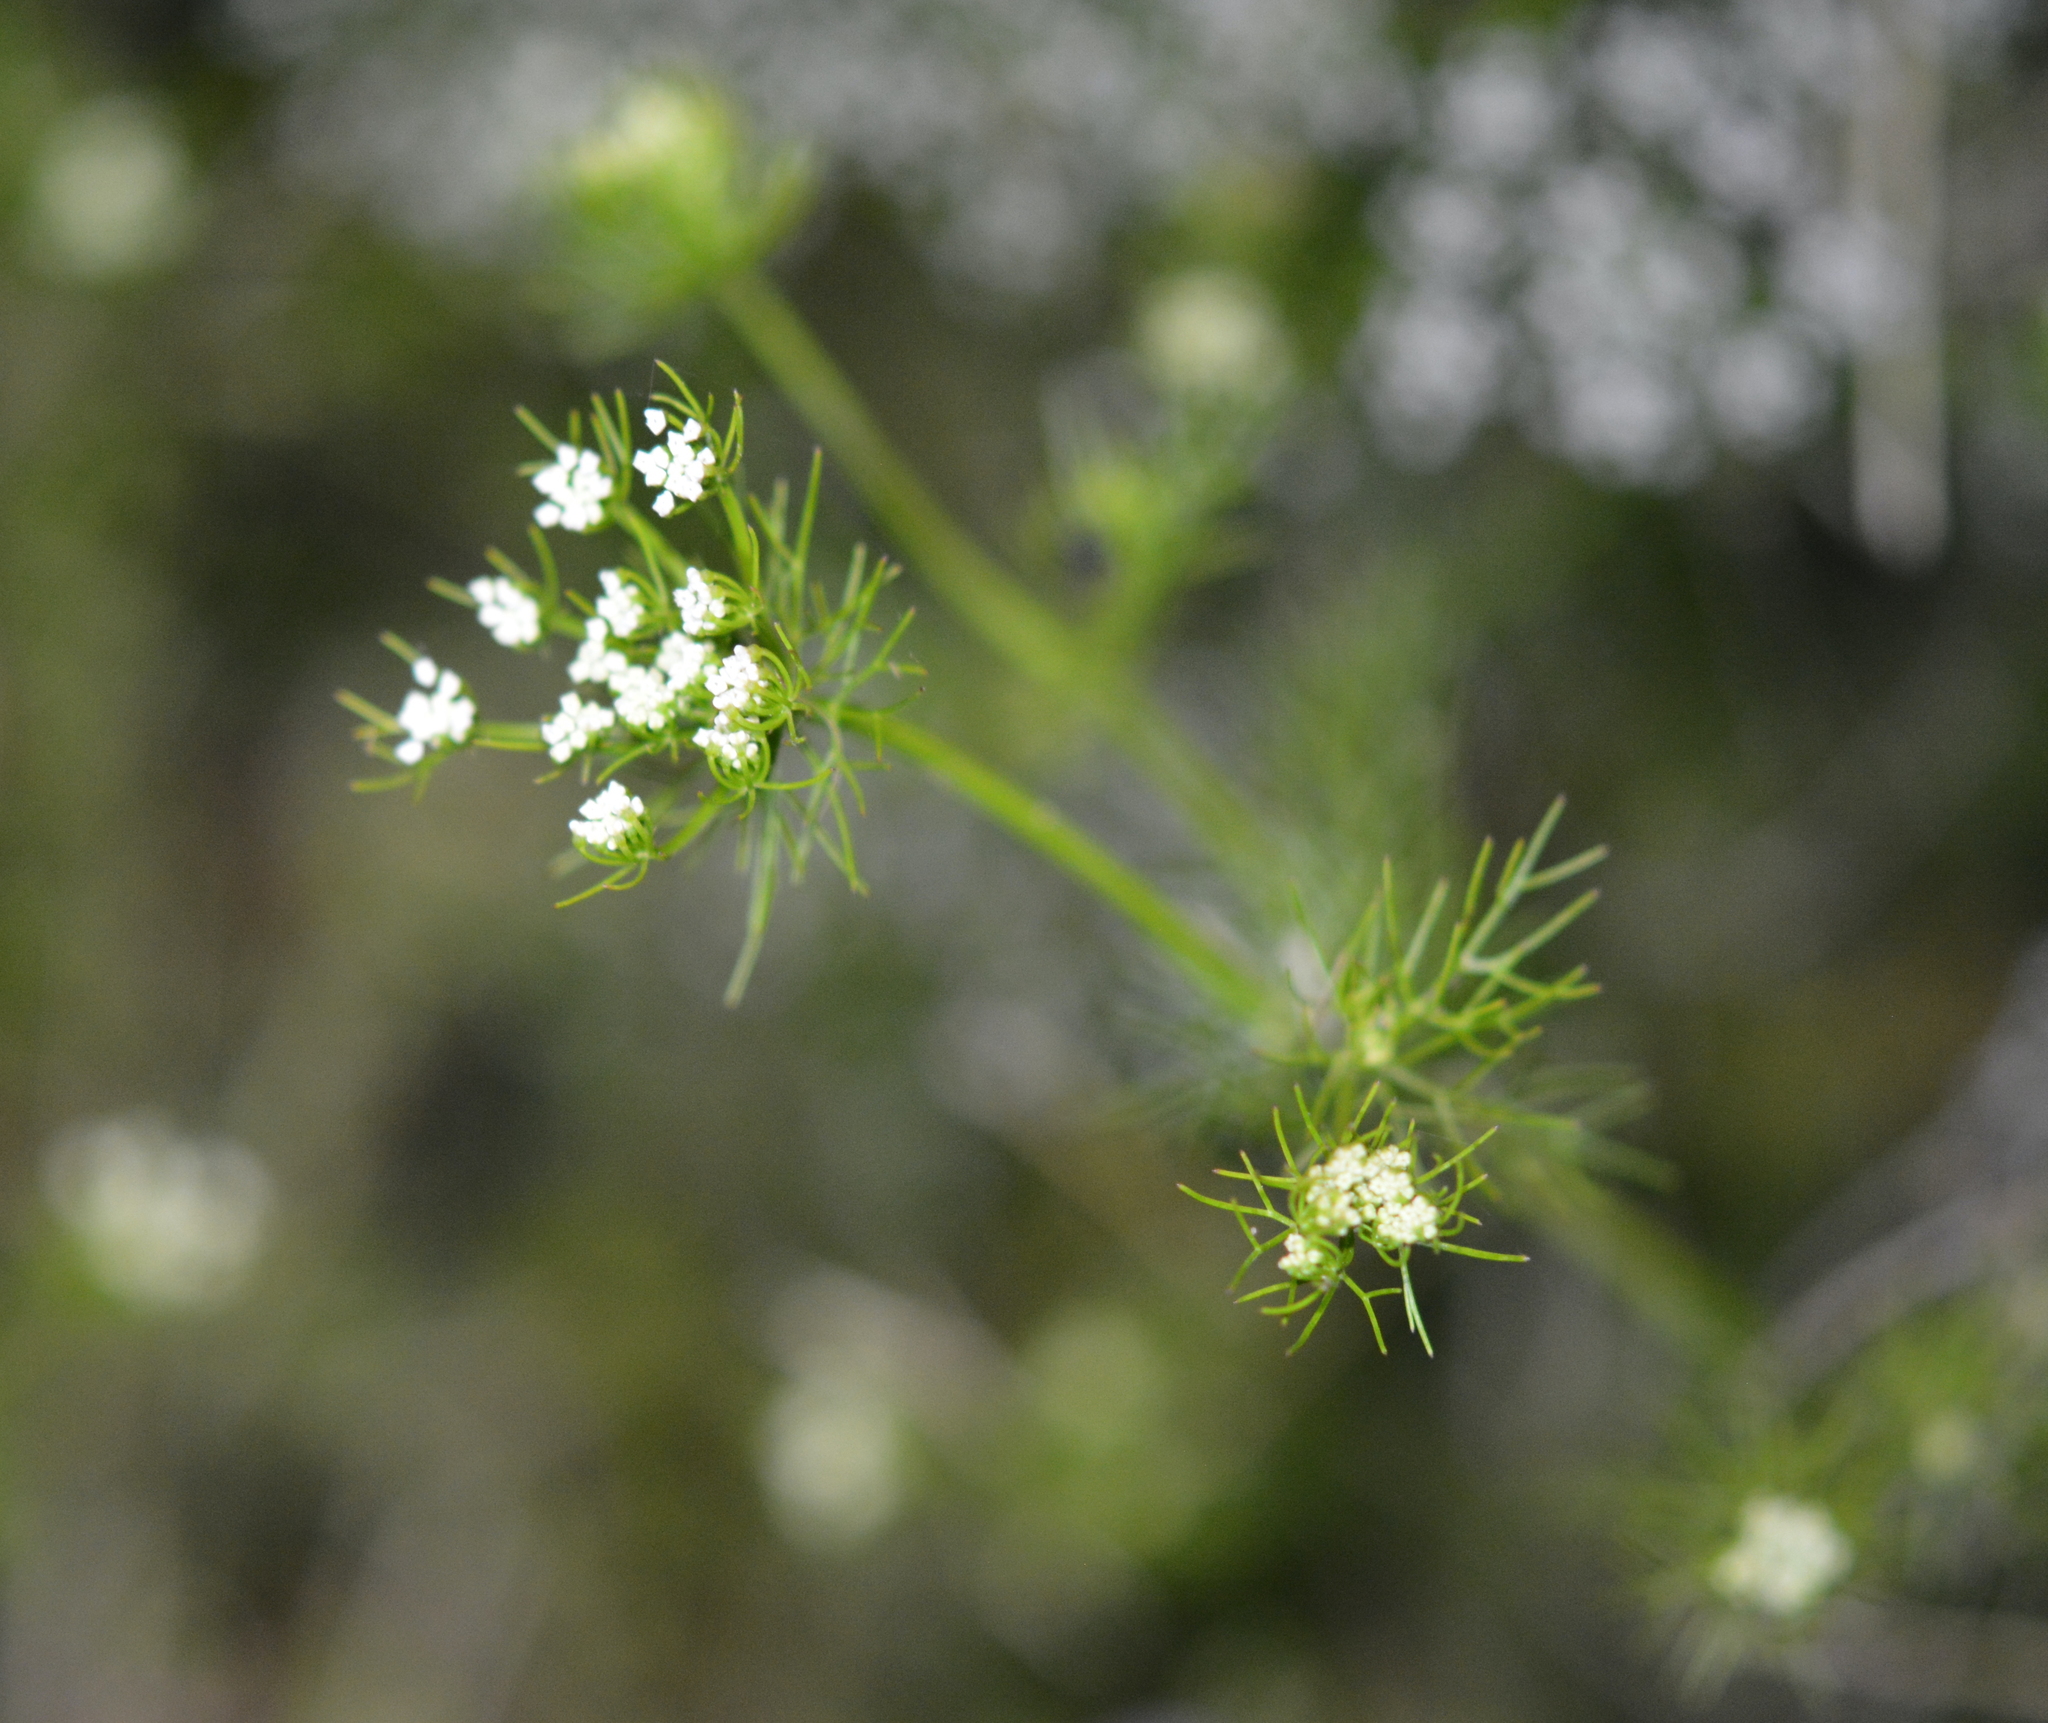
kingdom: Plantae
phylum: Tracheophyta
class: Magnoliopsida
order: Apiales
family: Apiaceae
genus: Ptilimnium
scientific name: Ptilimnium capillaceum
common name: Herbwilliam
